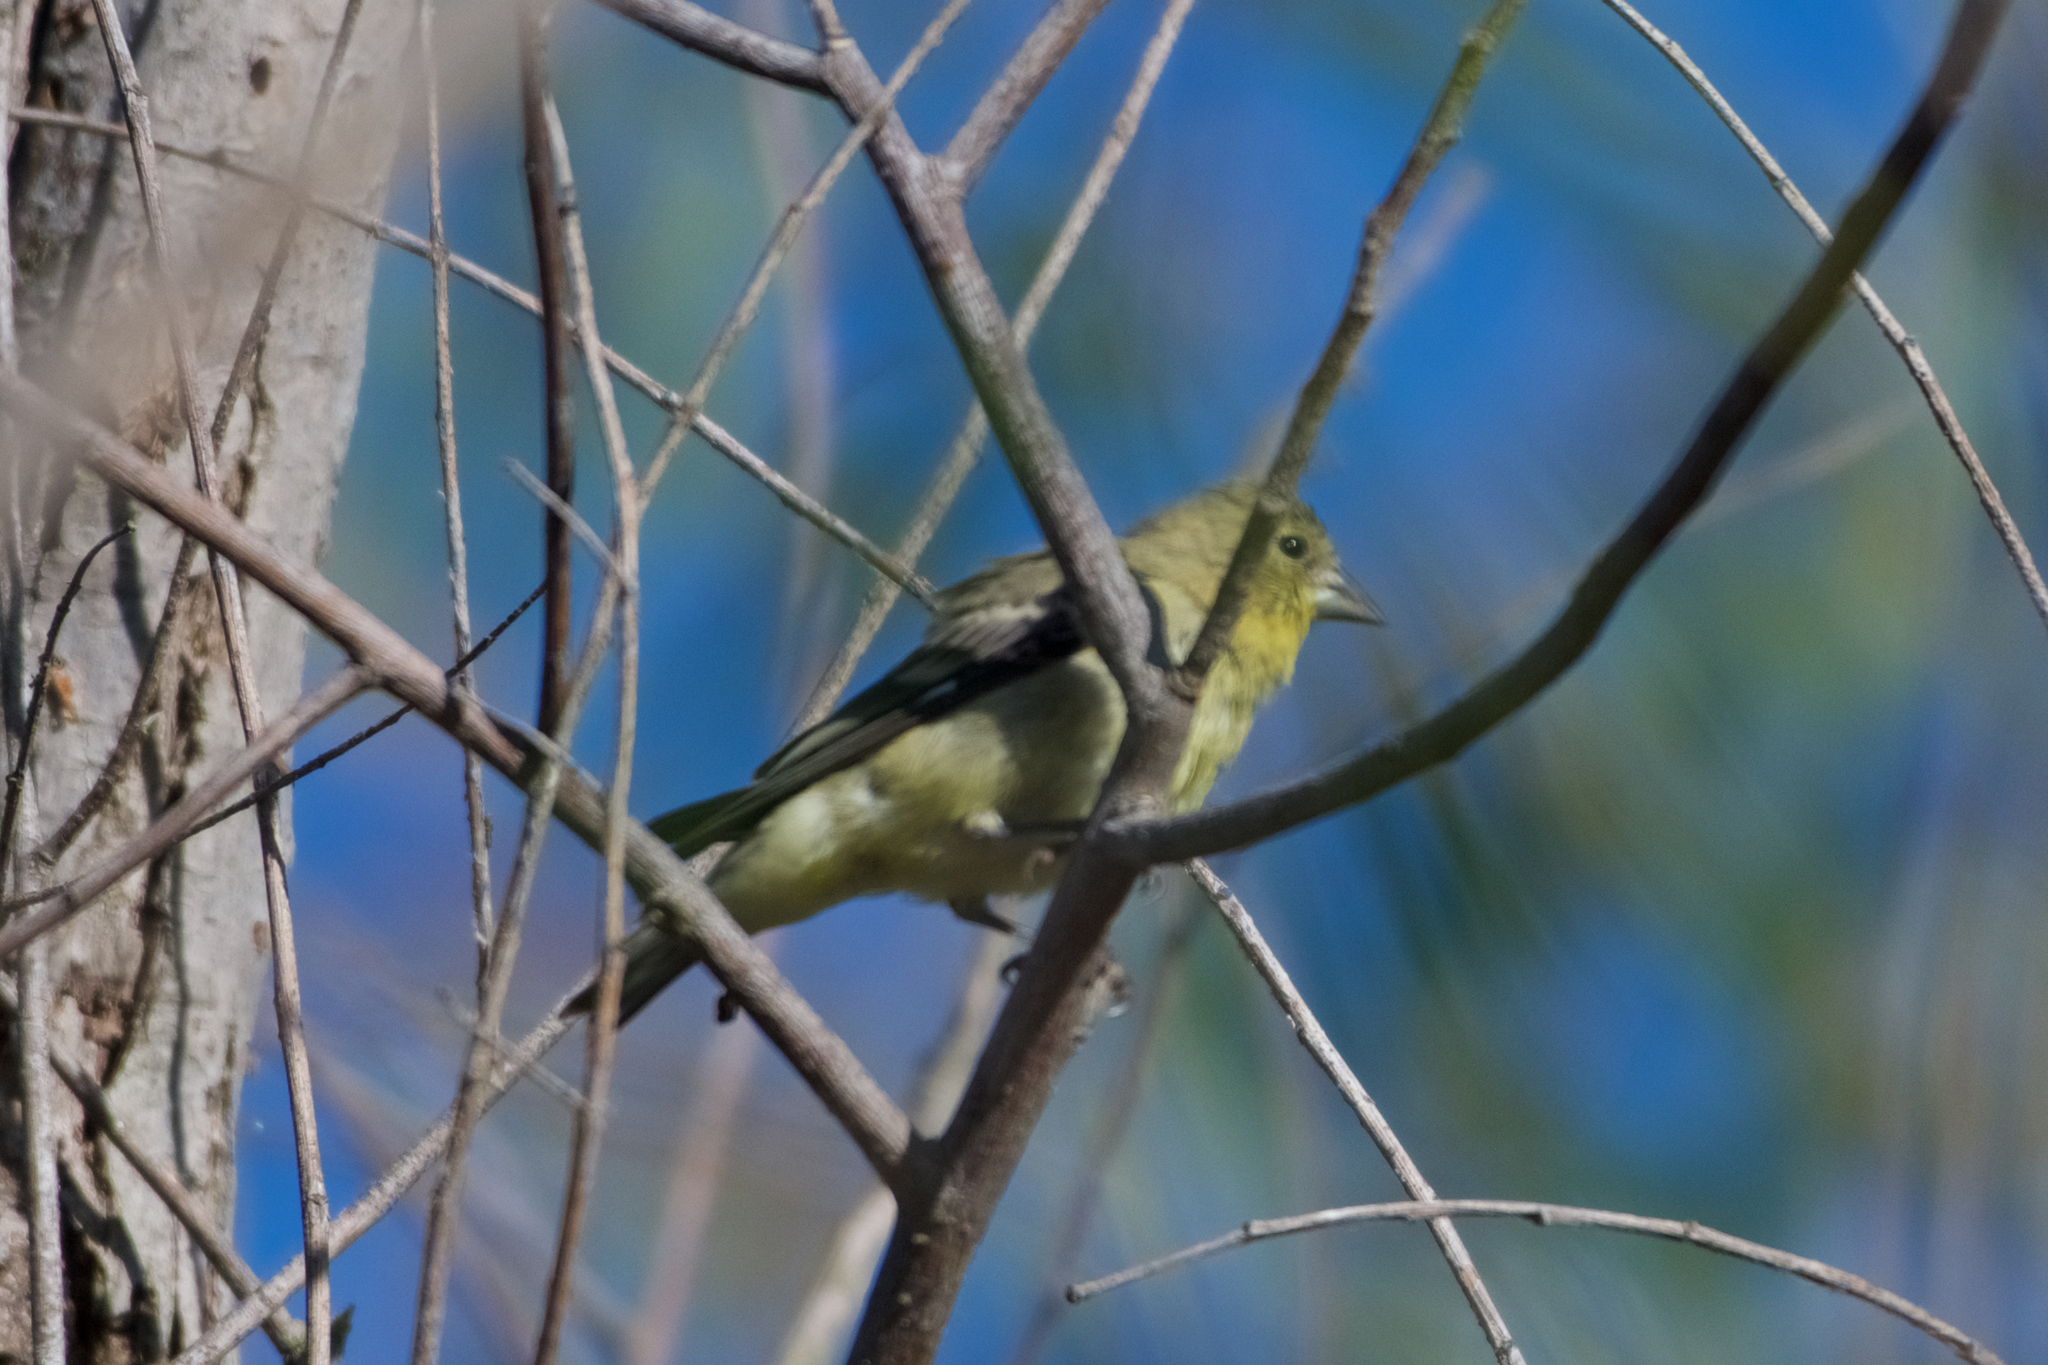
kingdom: Animalia
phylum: Chordata
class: Aves
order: Passeriformes
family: Fringillidae
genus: Spinus
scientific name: Spinus psaltria
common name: Lesser goldfinch
